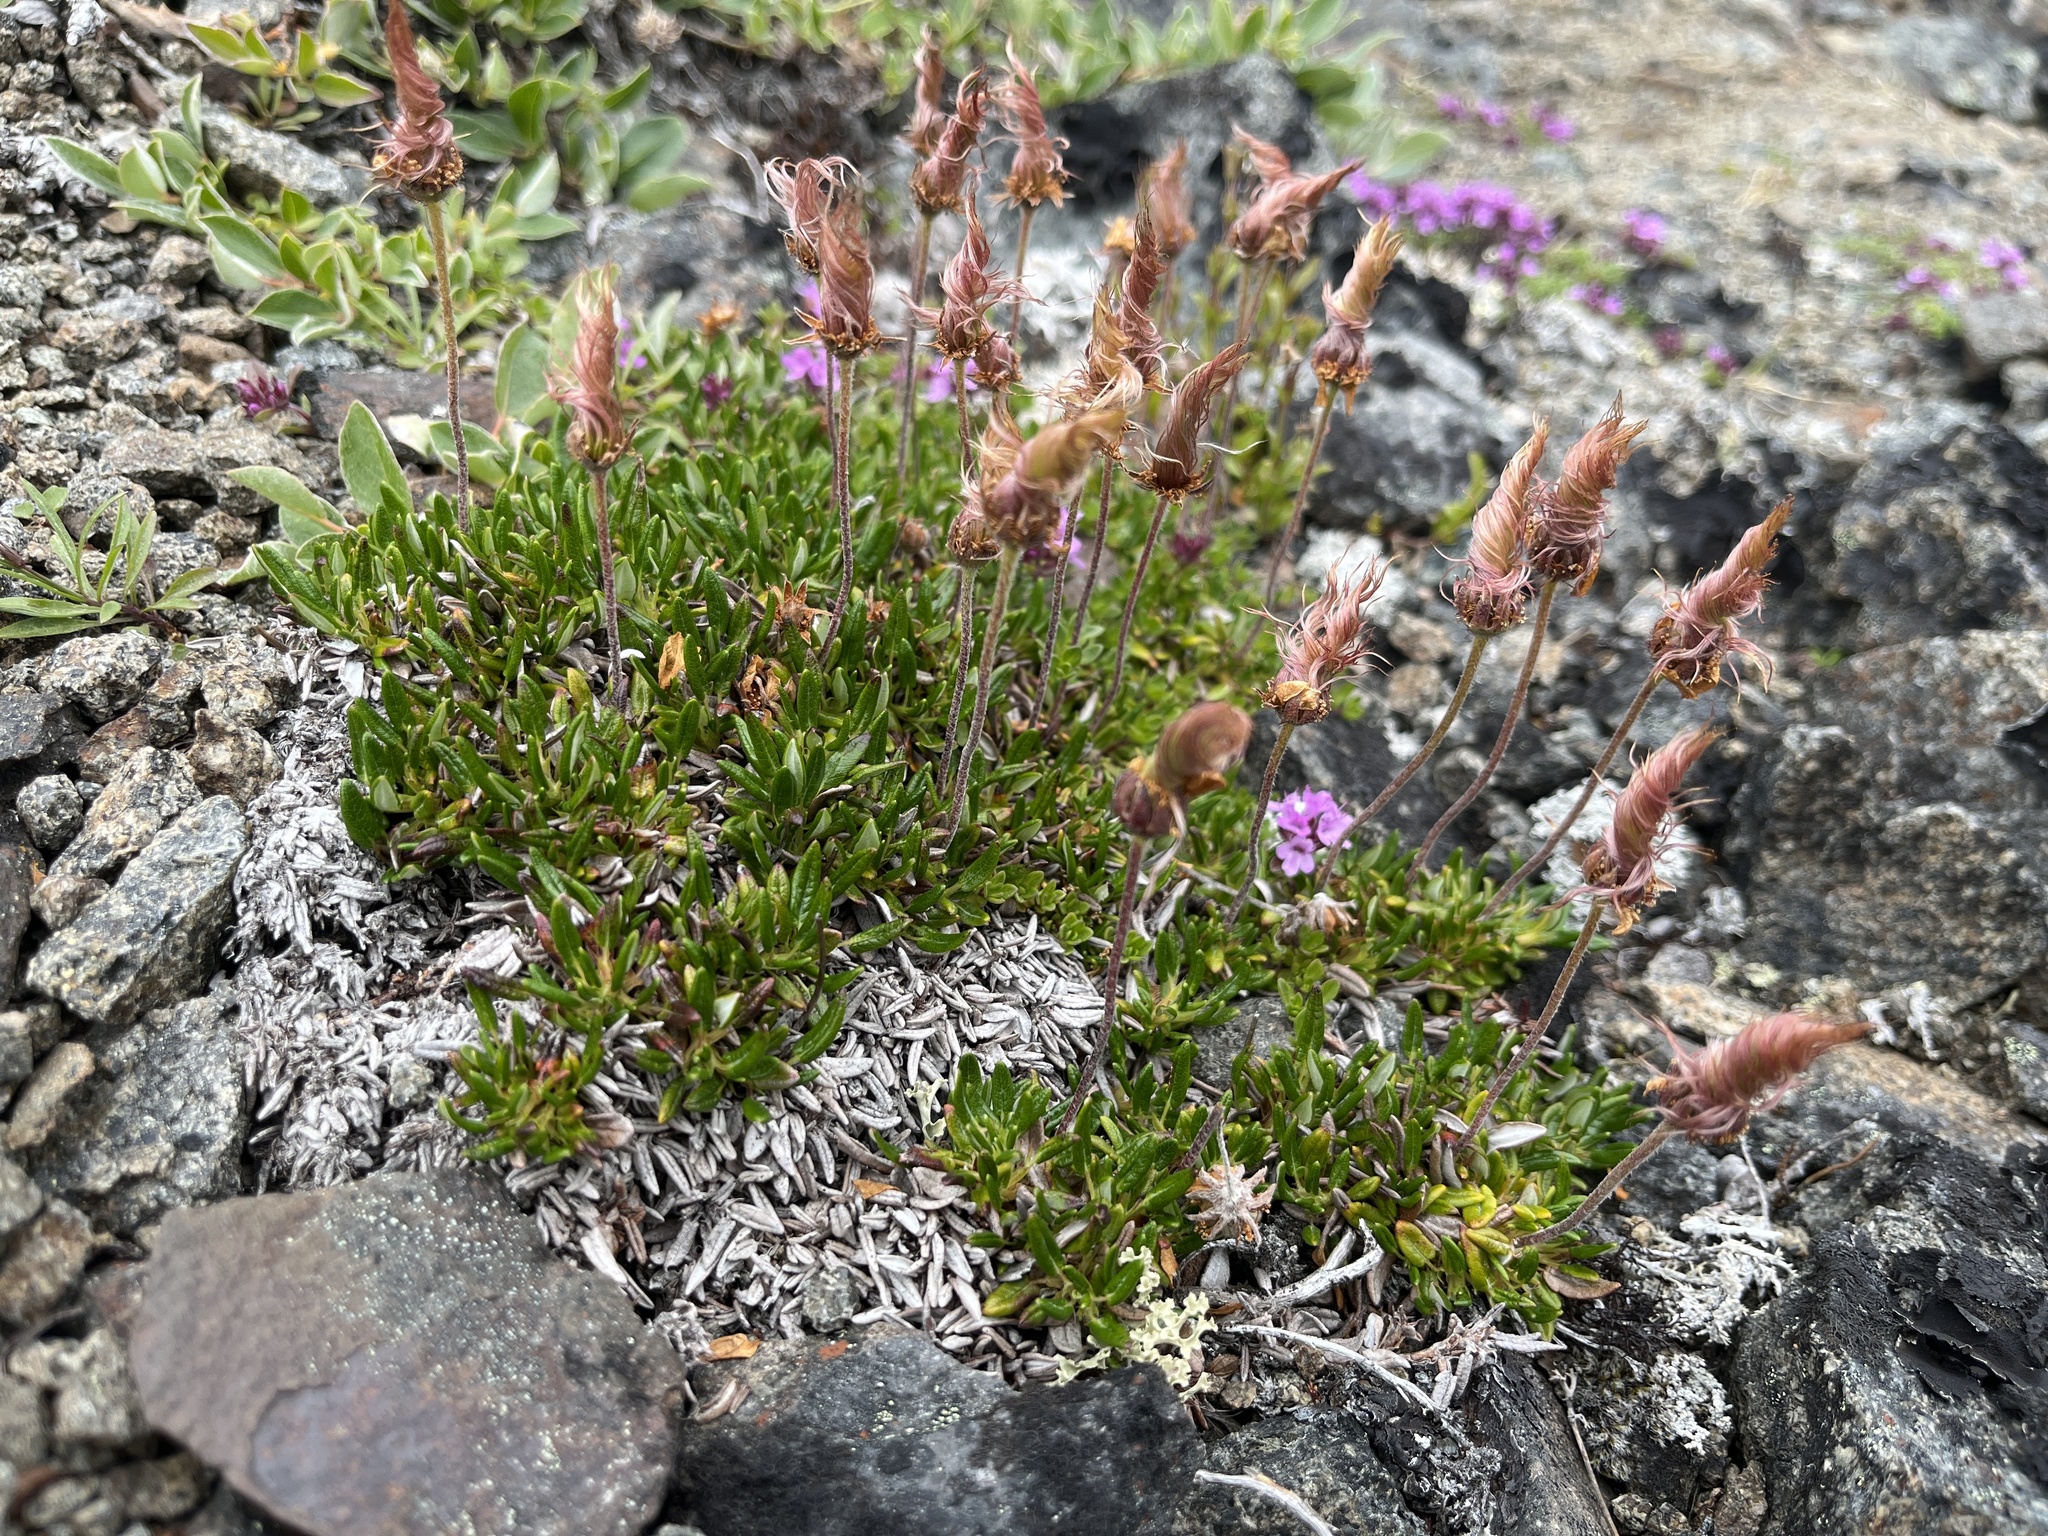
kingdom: Plantae
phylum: Tracheophyta
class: Magnoliopsida
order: Rosales
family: Rosaceae
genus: Dryas
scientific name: Dryas integrifolia
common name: Entire-leaved mountain avens
